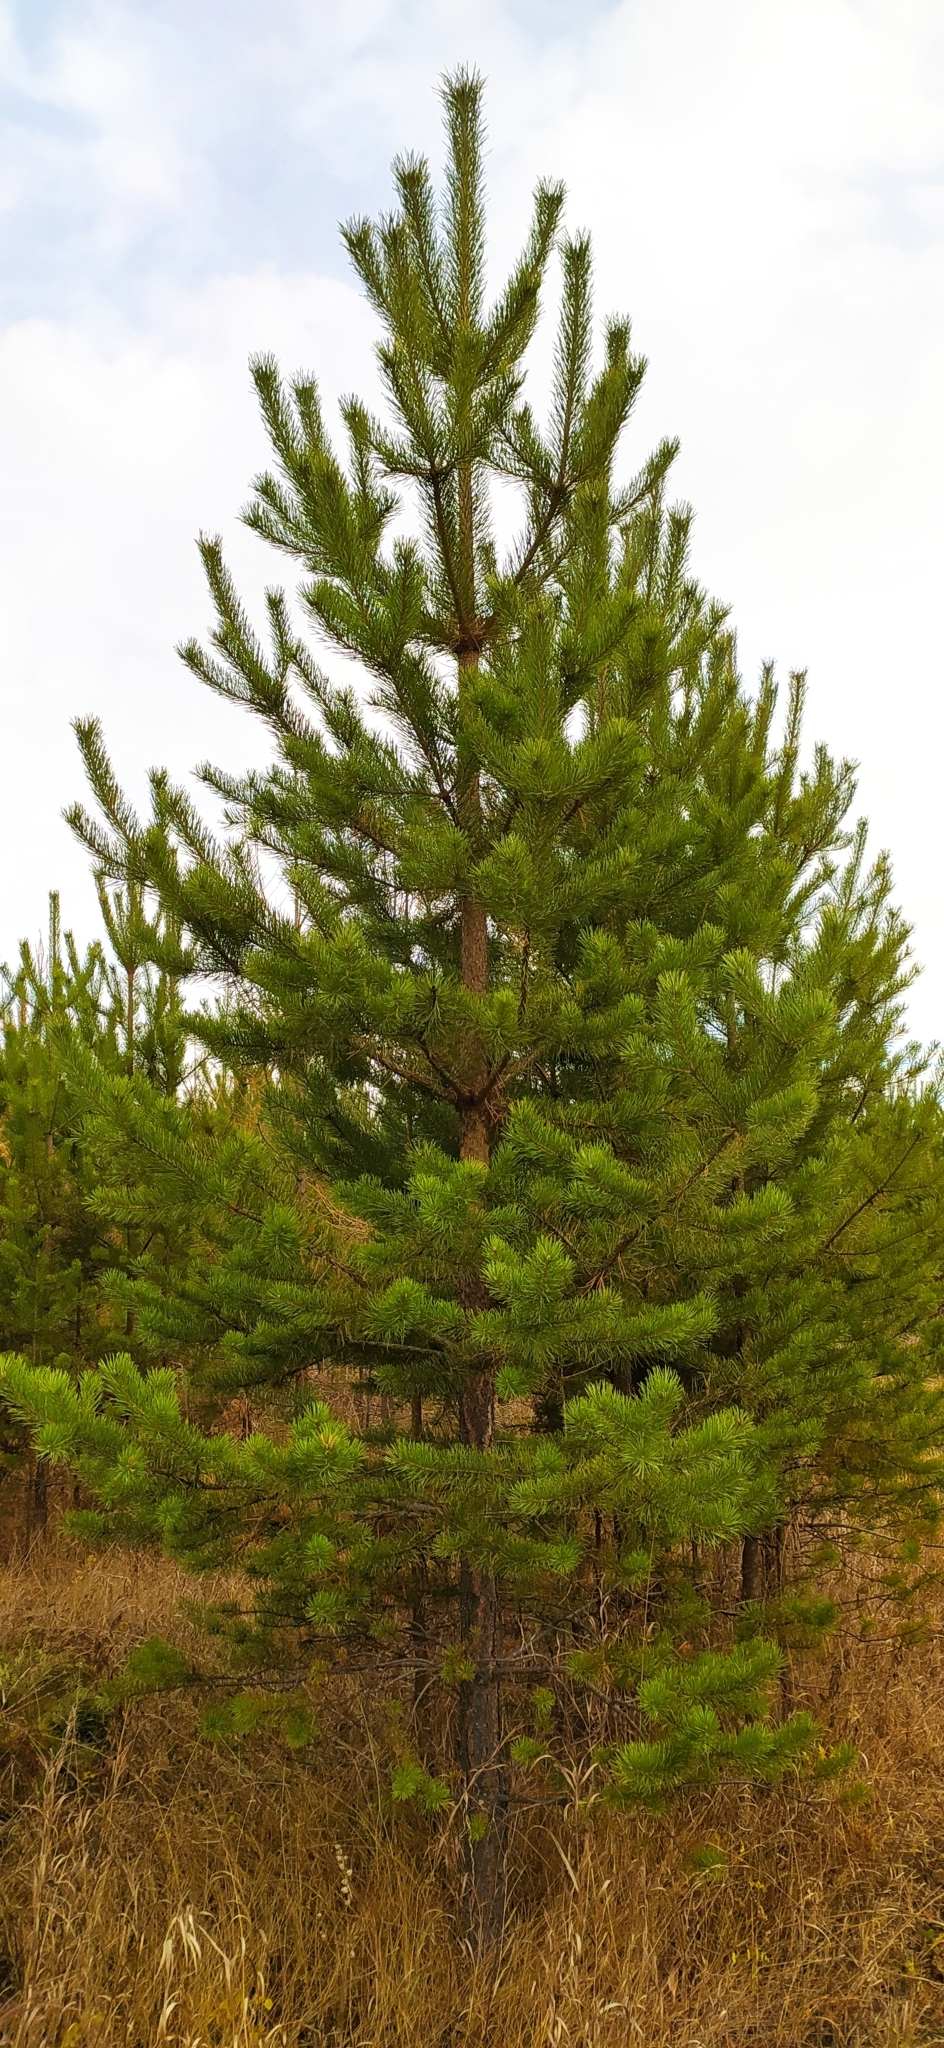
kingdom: Plantae
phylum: Tracheophyta
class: Pinopsida
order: Pinales
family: Pinaceae
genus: Pinus
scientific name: Pinus sylvestris
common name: Scots pine
